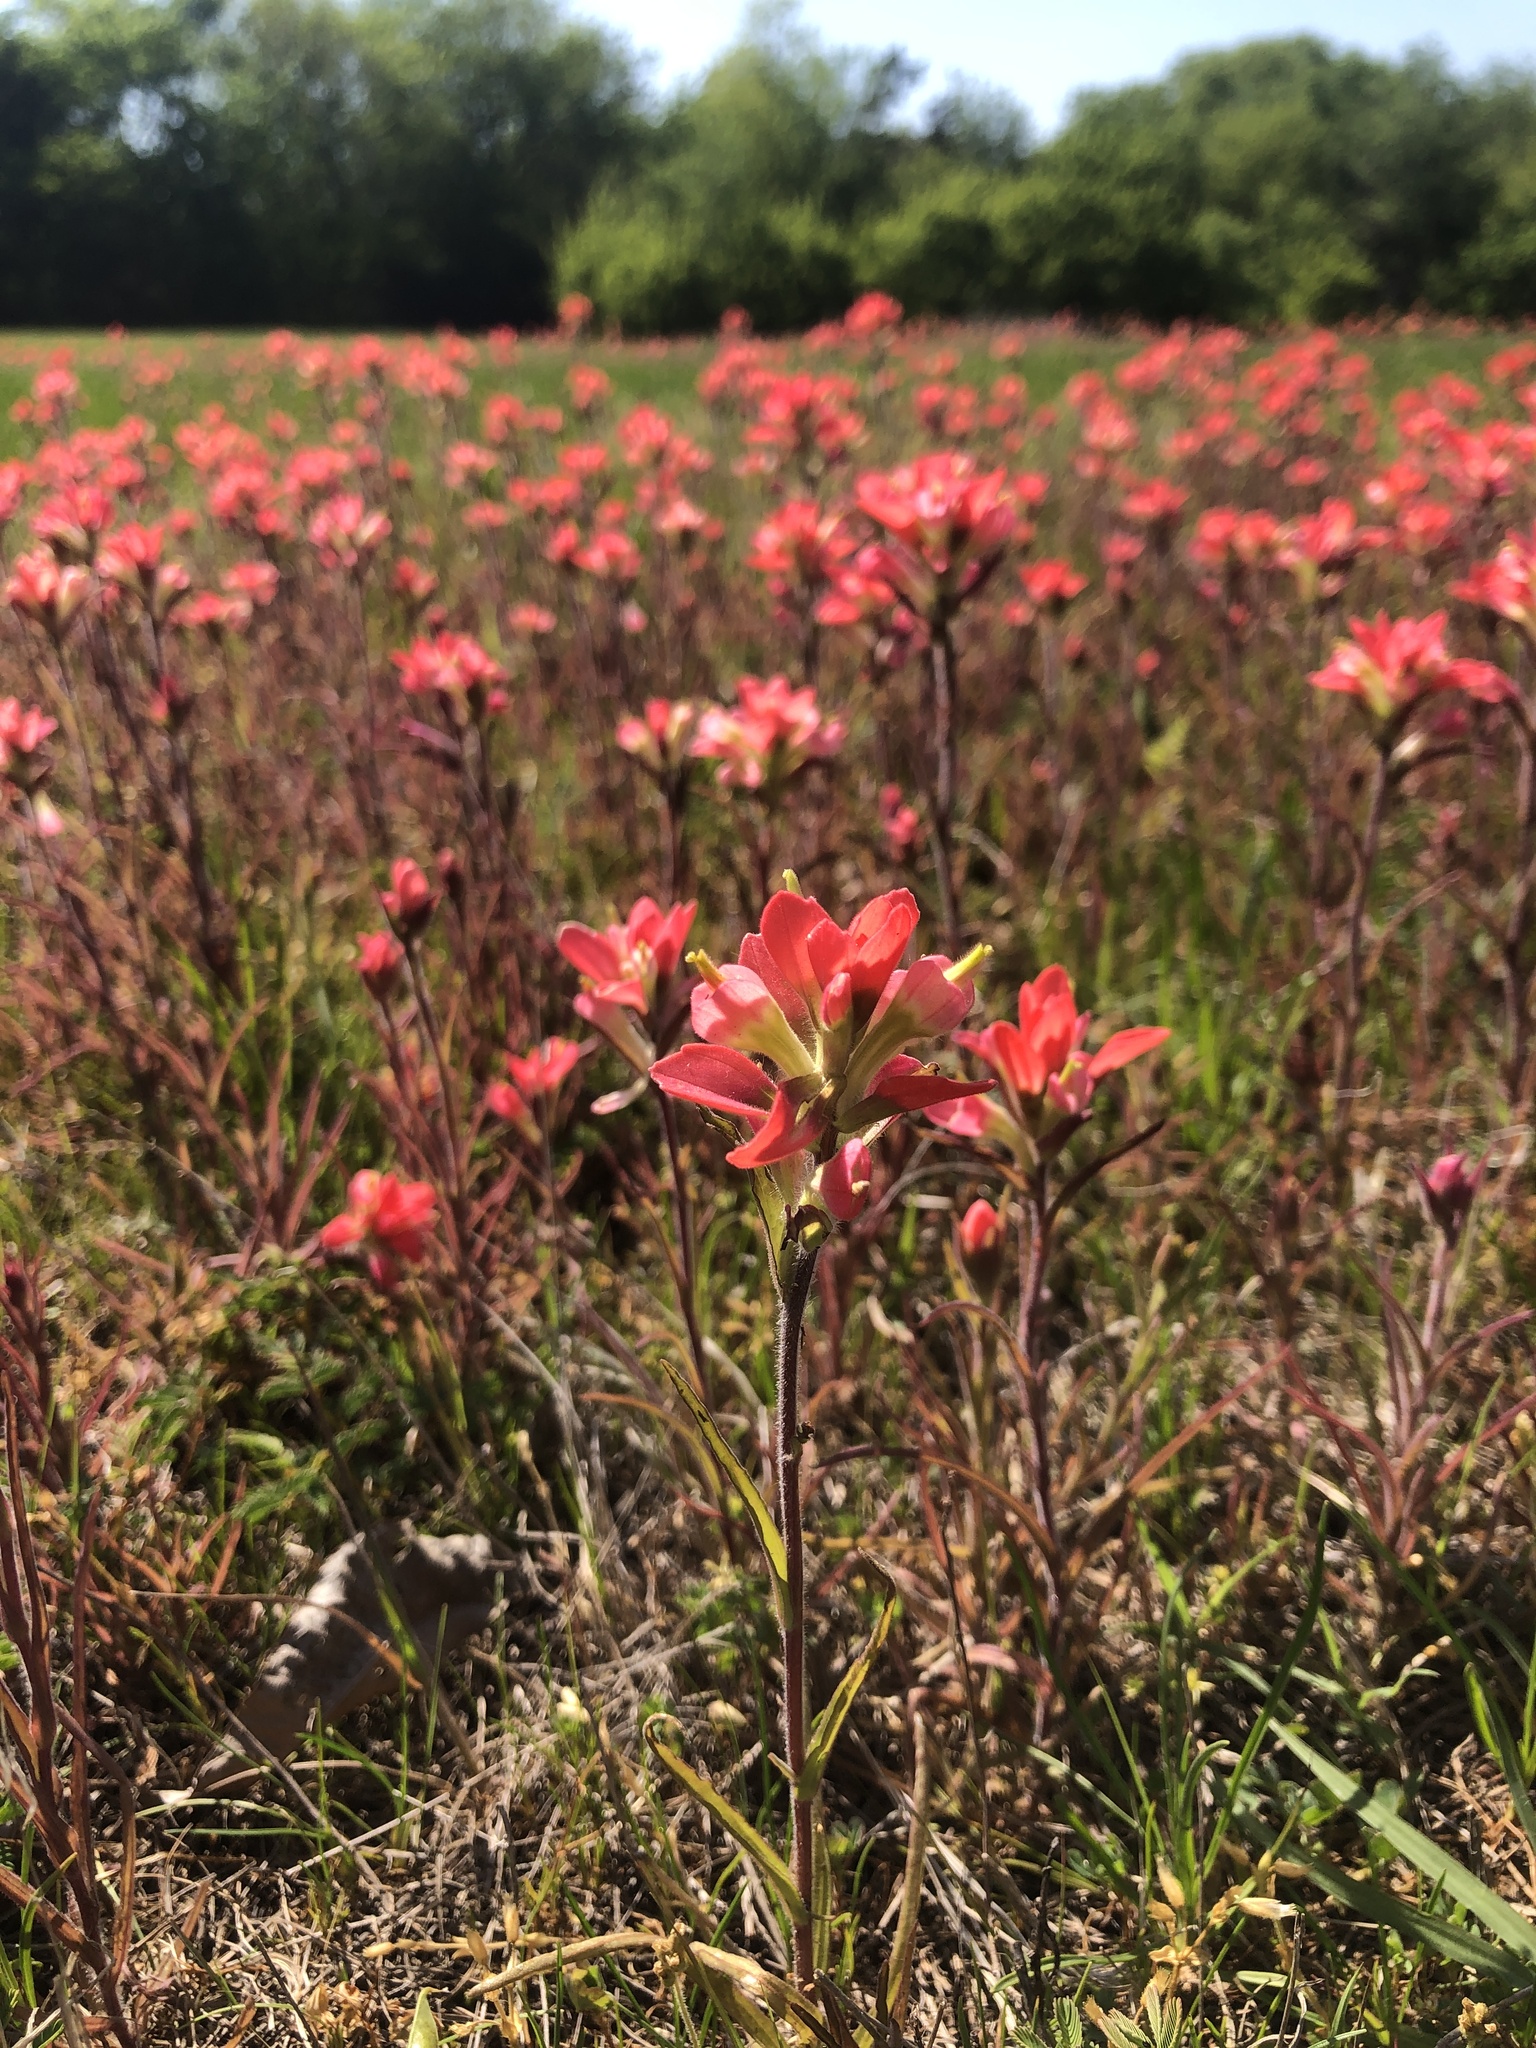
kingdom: Plantae
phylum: Tracheophyta
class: Magnoliopsida
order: Lamiales
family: Orobanchaceae
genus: Castilleja
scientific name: Castilleja indivisa
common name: Texas paintbrush
